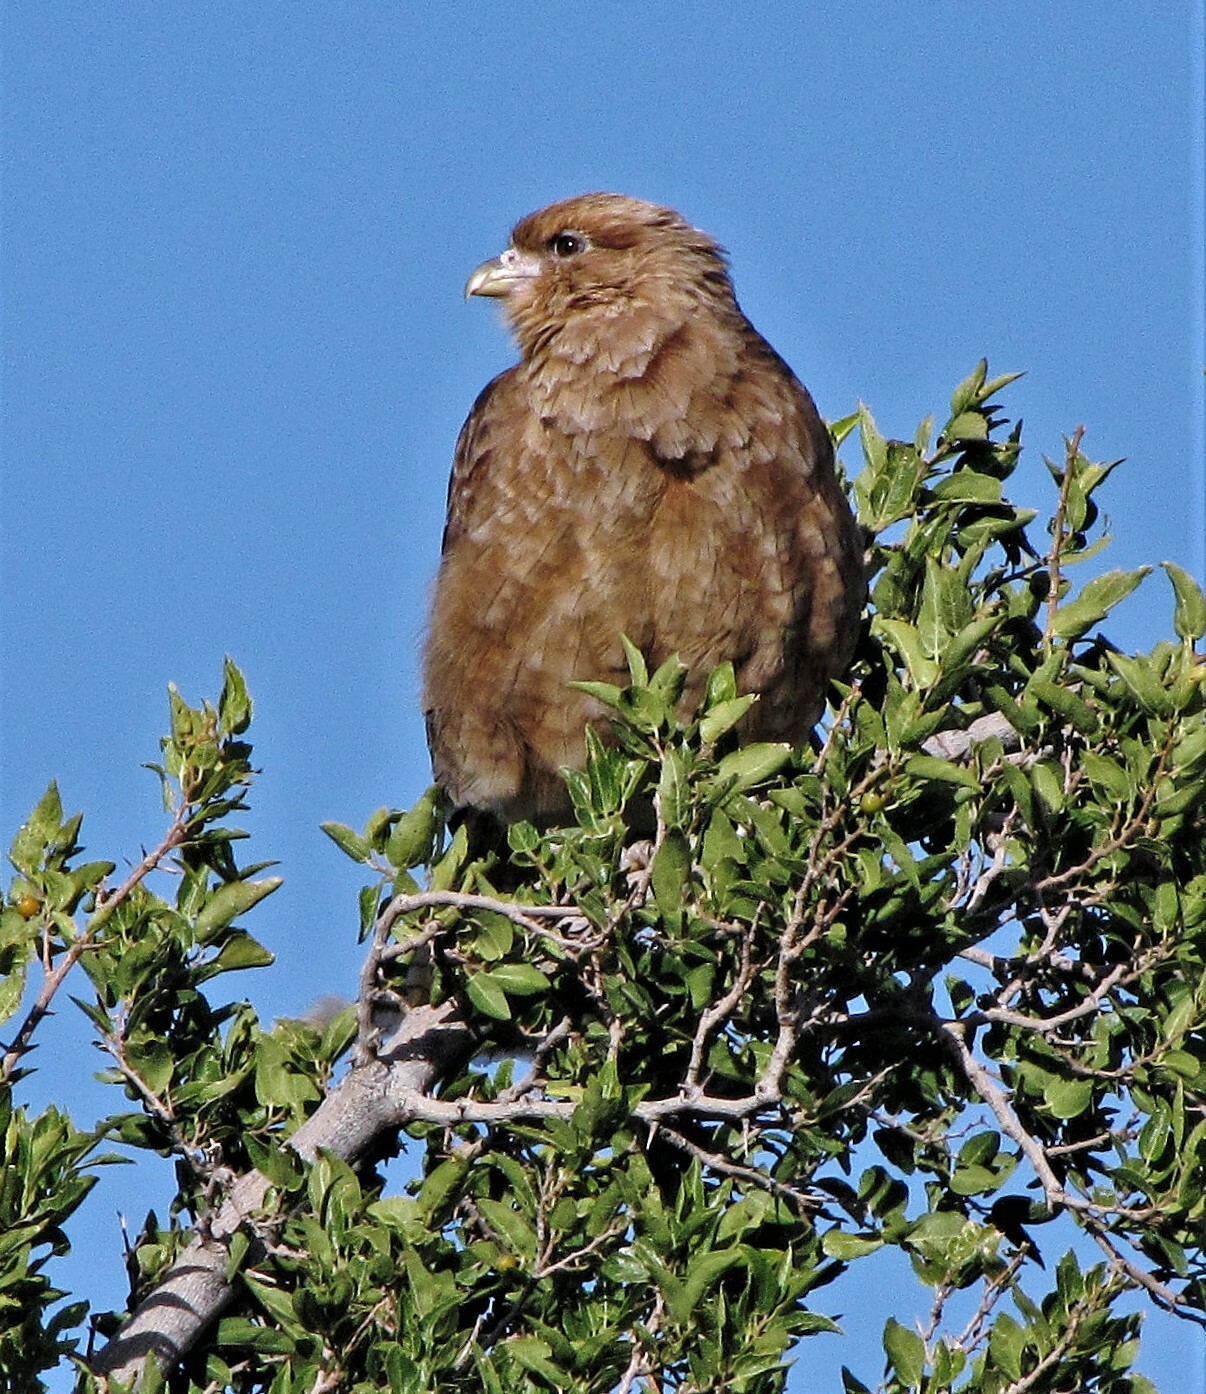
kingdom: Animalia
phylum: Chordata
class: Aves
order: Falconiformes
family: Falconidae
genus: Daptrius
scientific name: Daptrius
